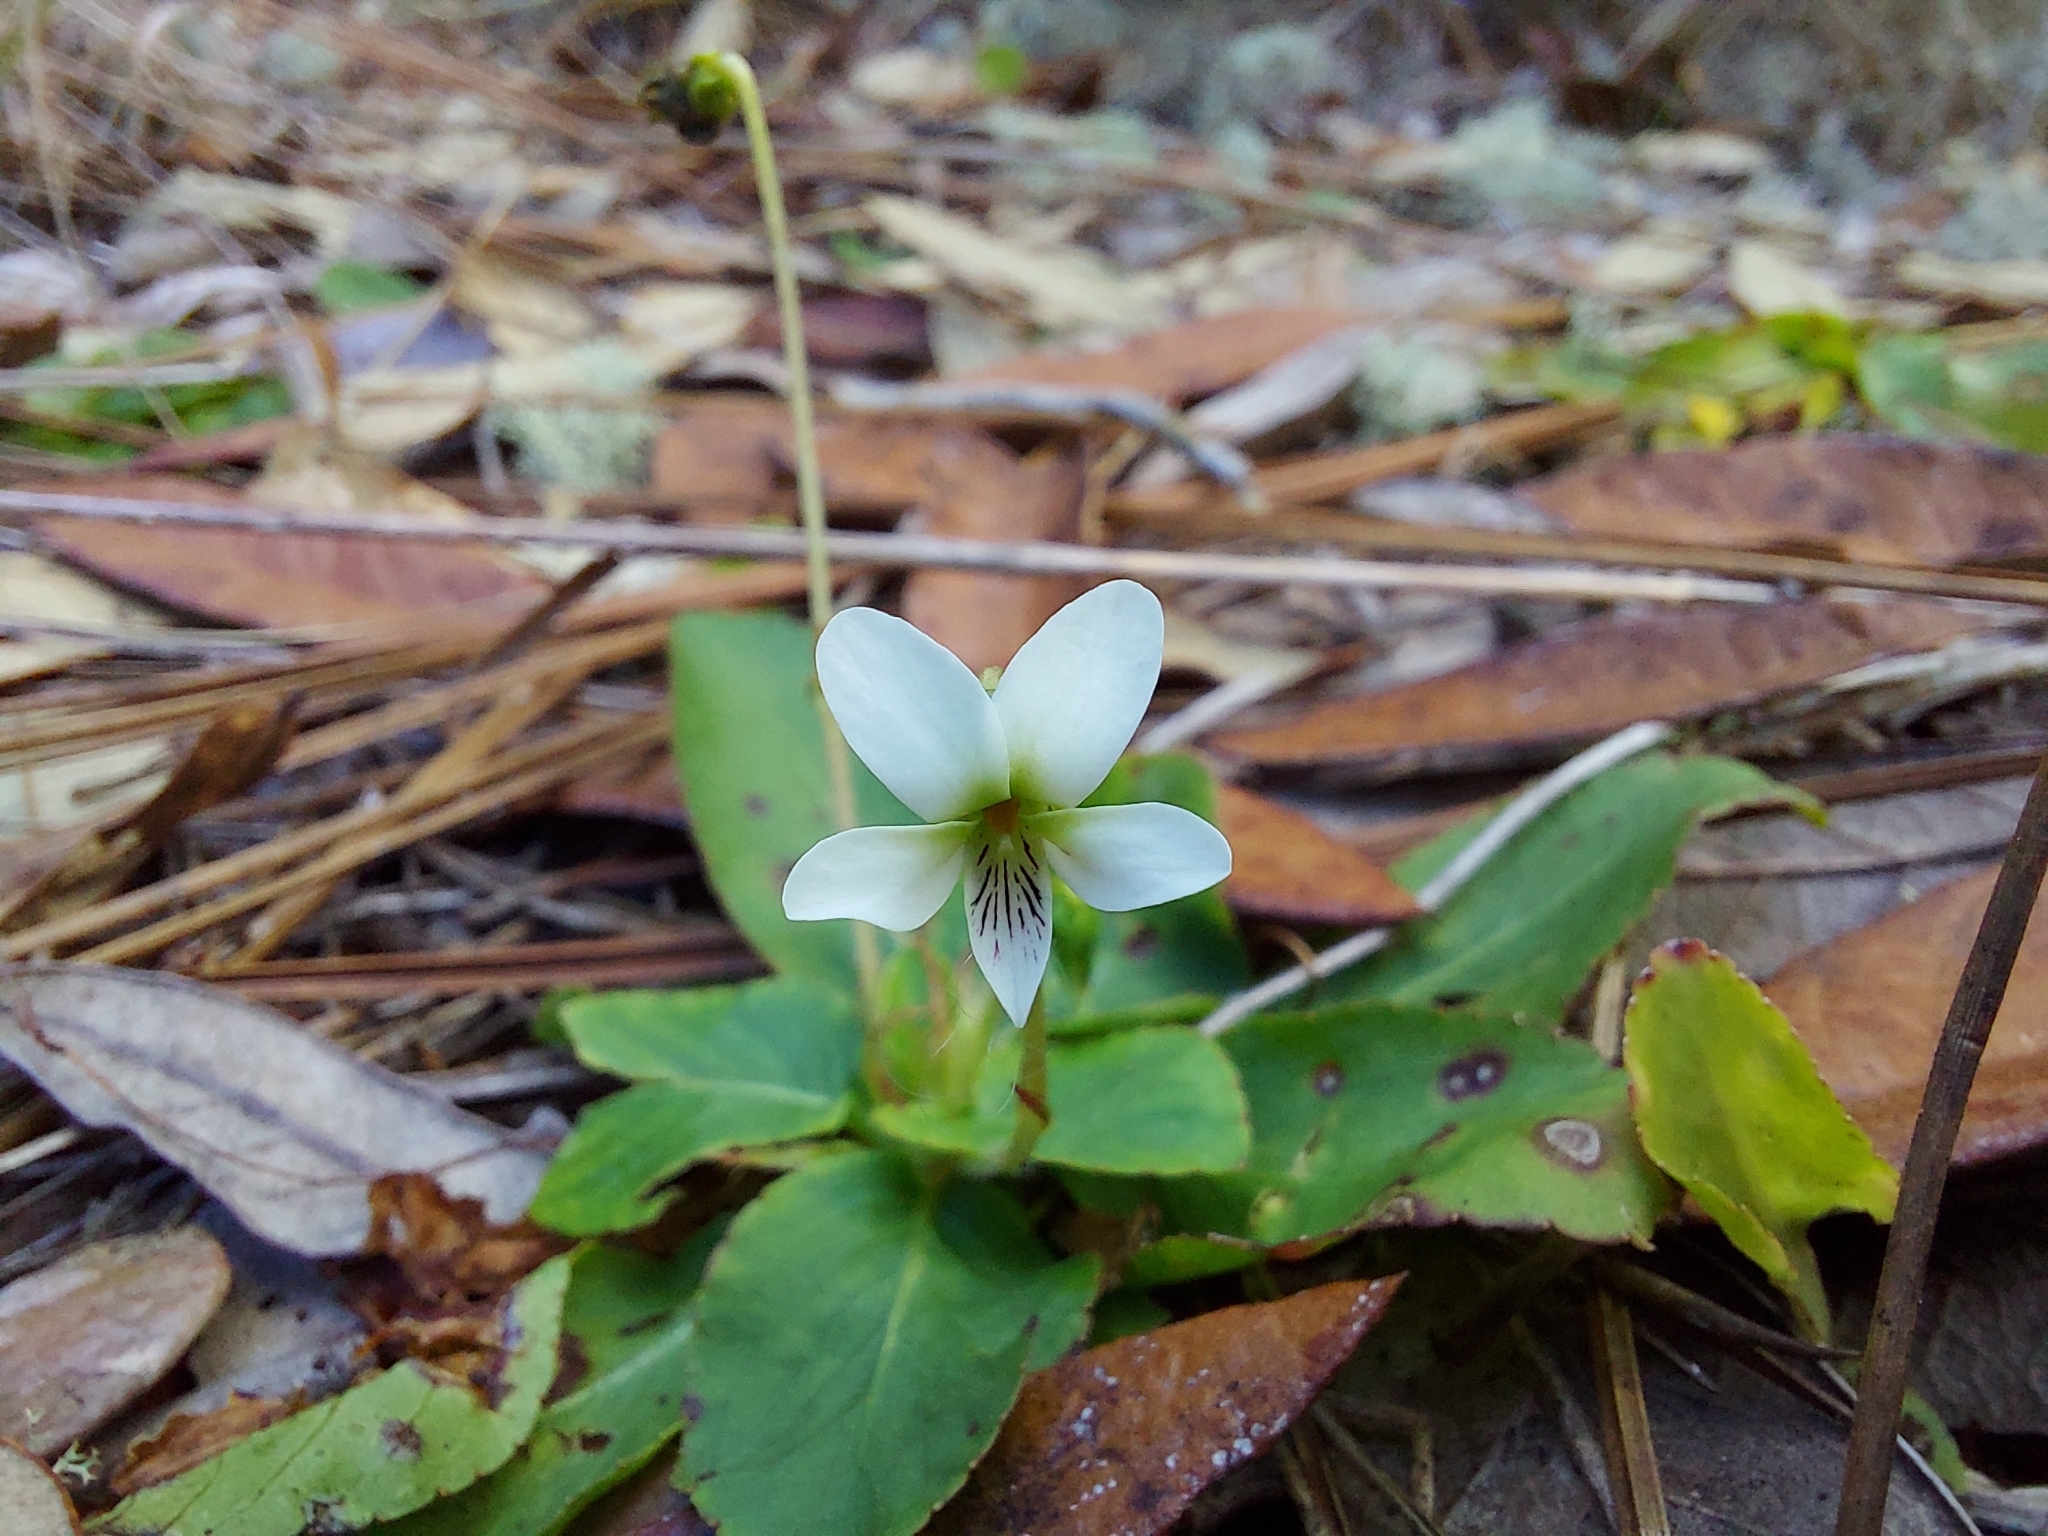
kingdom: Plantae
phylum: Tracheophyta
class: Magnoliopsida
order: Malpighiales
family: Violaceae
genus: Viola
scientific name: Viola primulifolia
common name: Primrose-leaf violet
